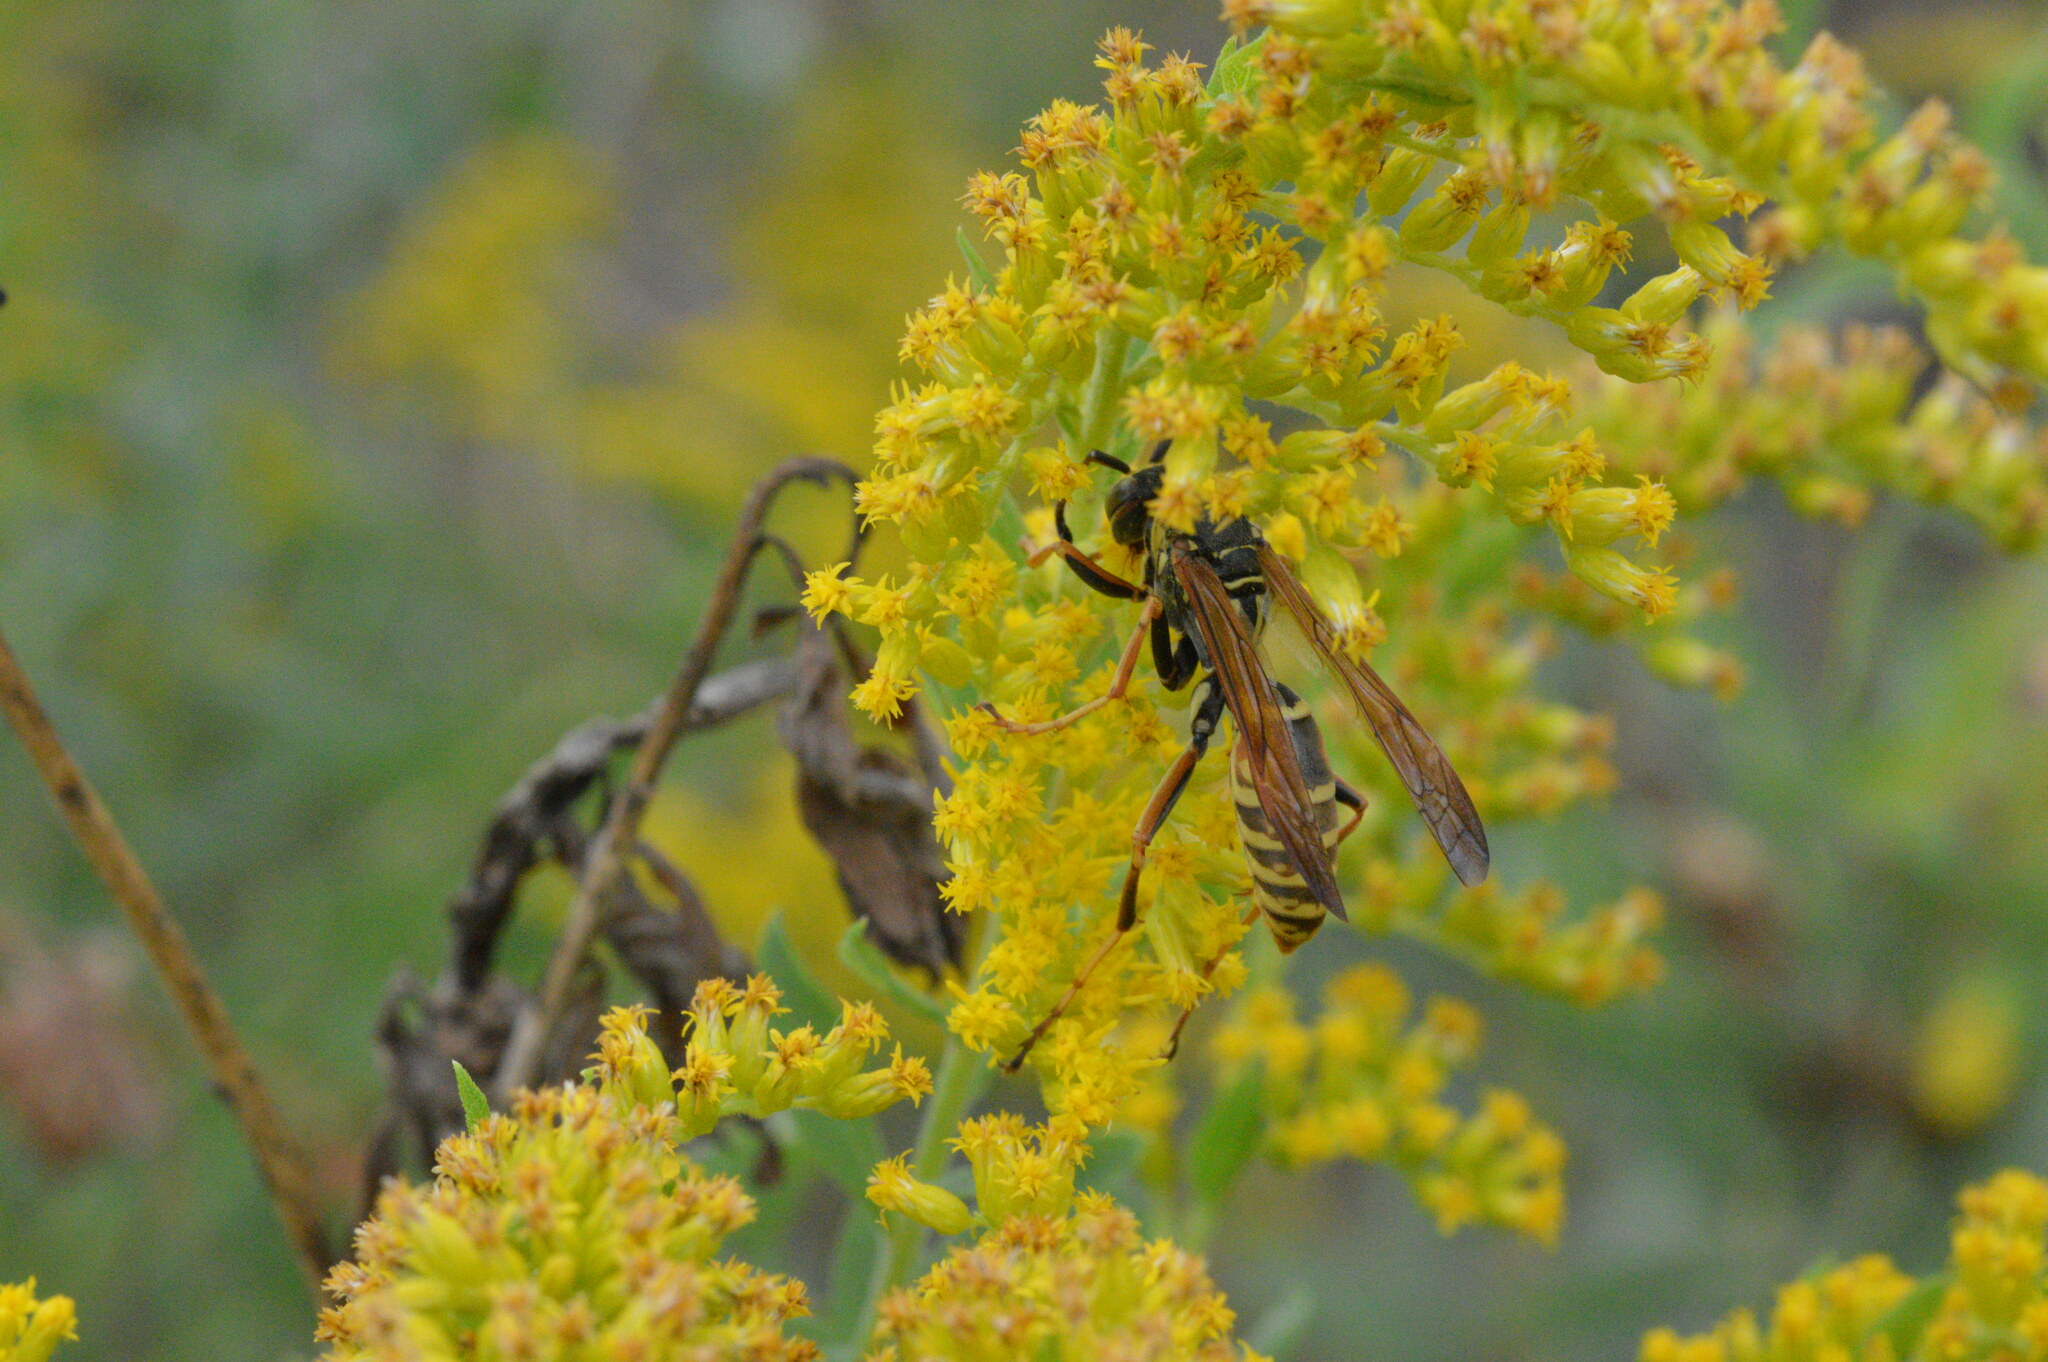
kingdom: Animalia
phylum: Arthropoda
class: Insecta
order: Hymenoptera
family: Eumenidae
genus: Polistes
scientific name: Polistes fuscatus
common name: Dark paper wasp
